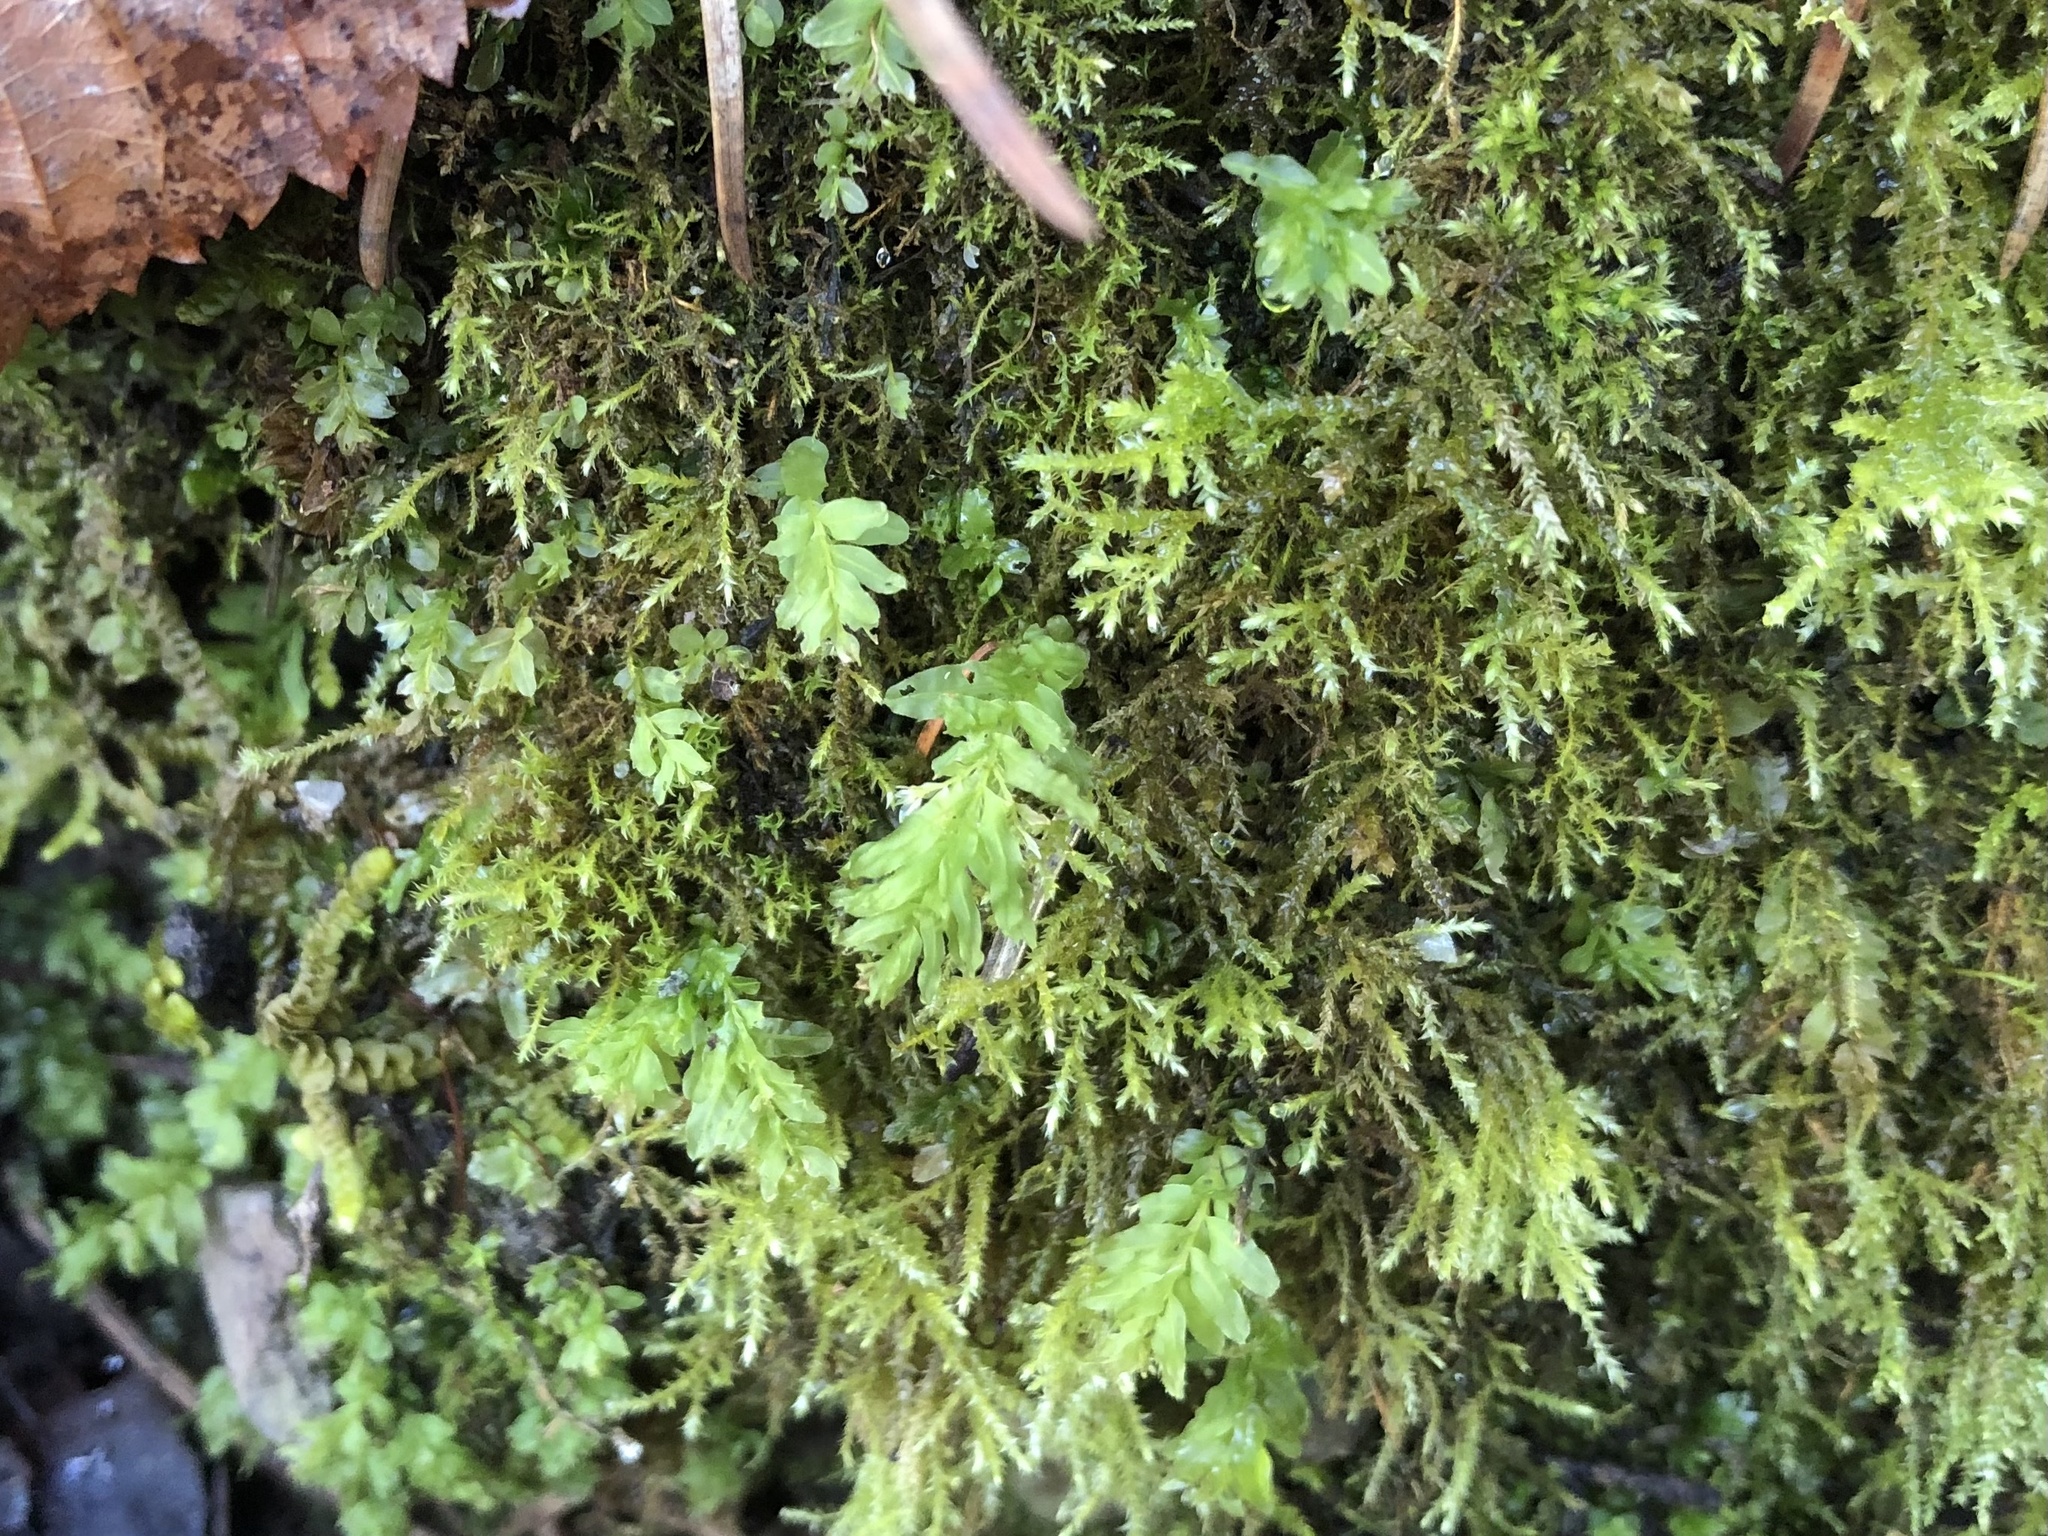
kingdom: Plantae
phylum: Bryophyta
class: Bryopsida
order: Bryales
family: Mniaceae
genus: Plagiomnium
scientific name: Plagiomnium undulatum
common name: Hart's-tongue thyme-moss
